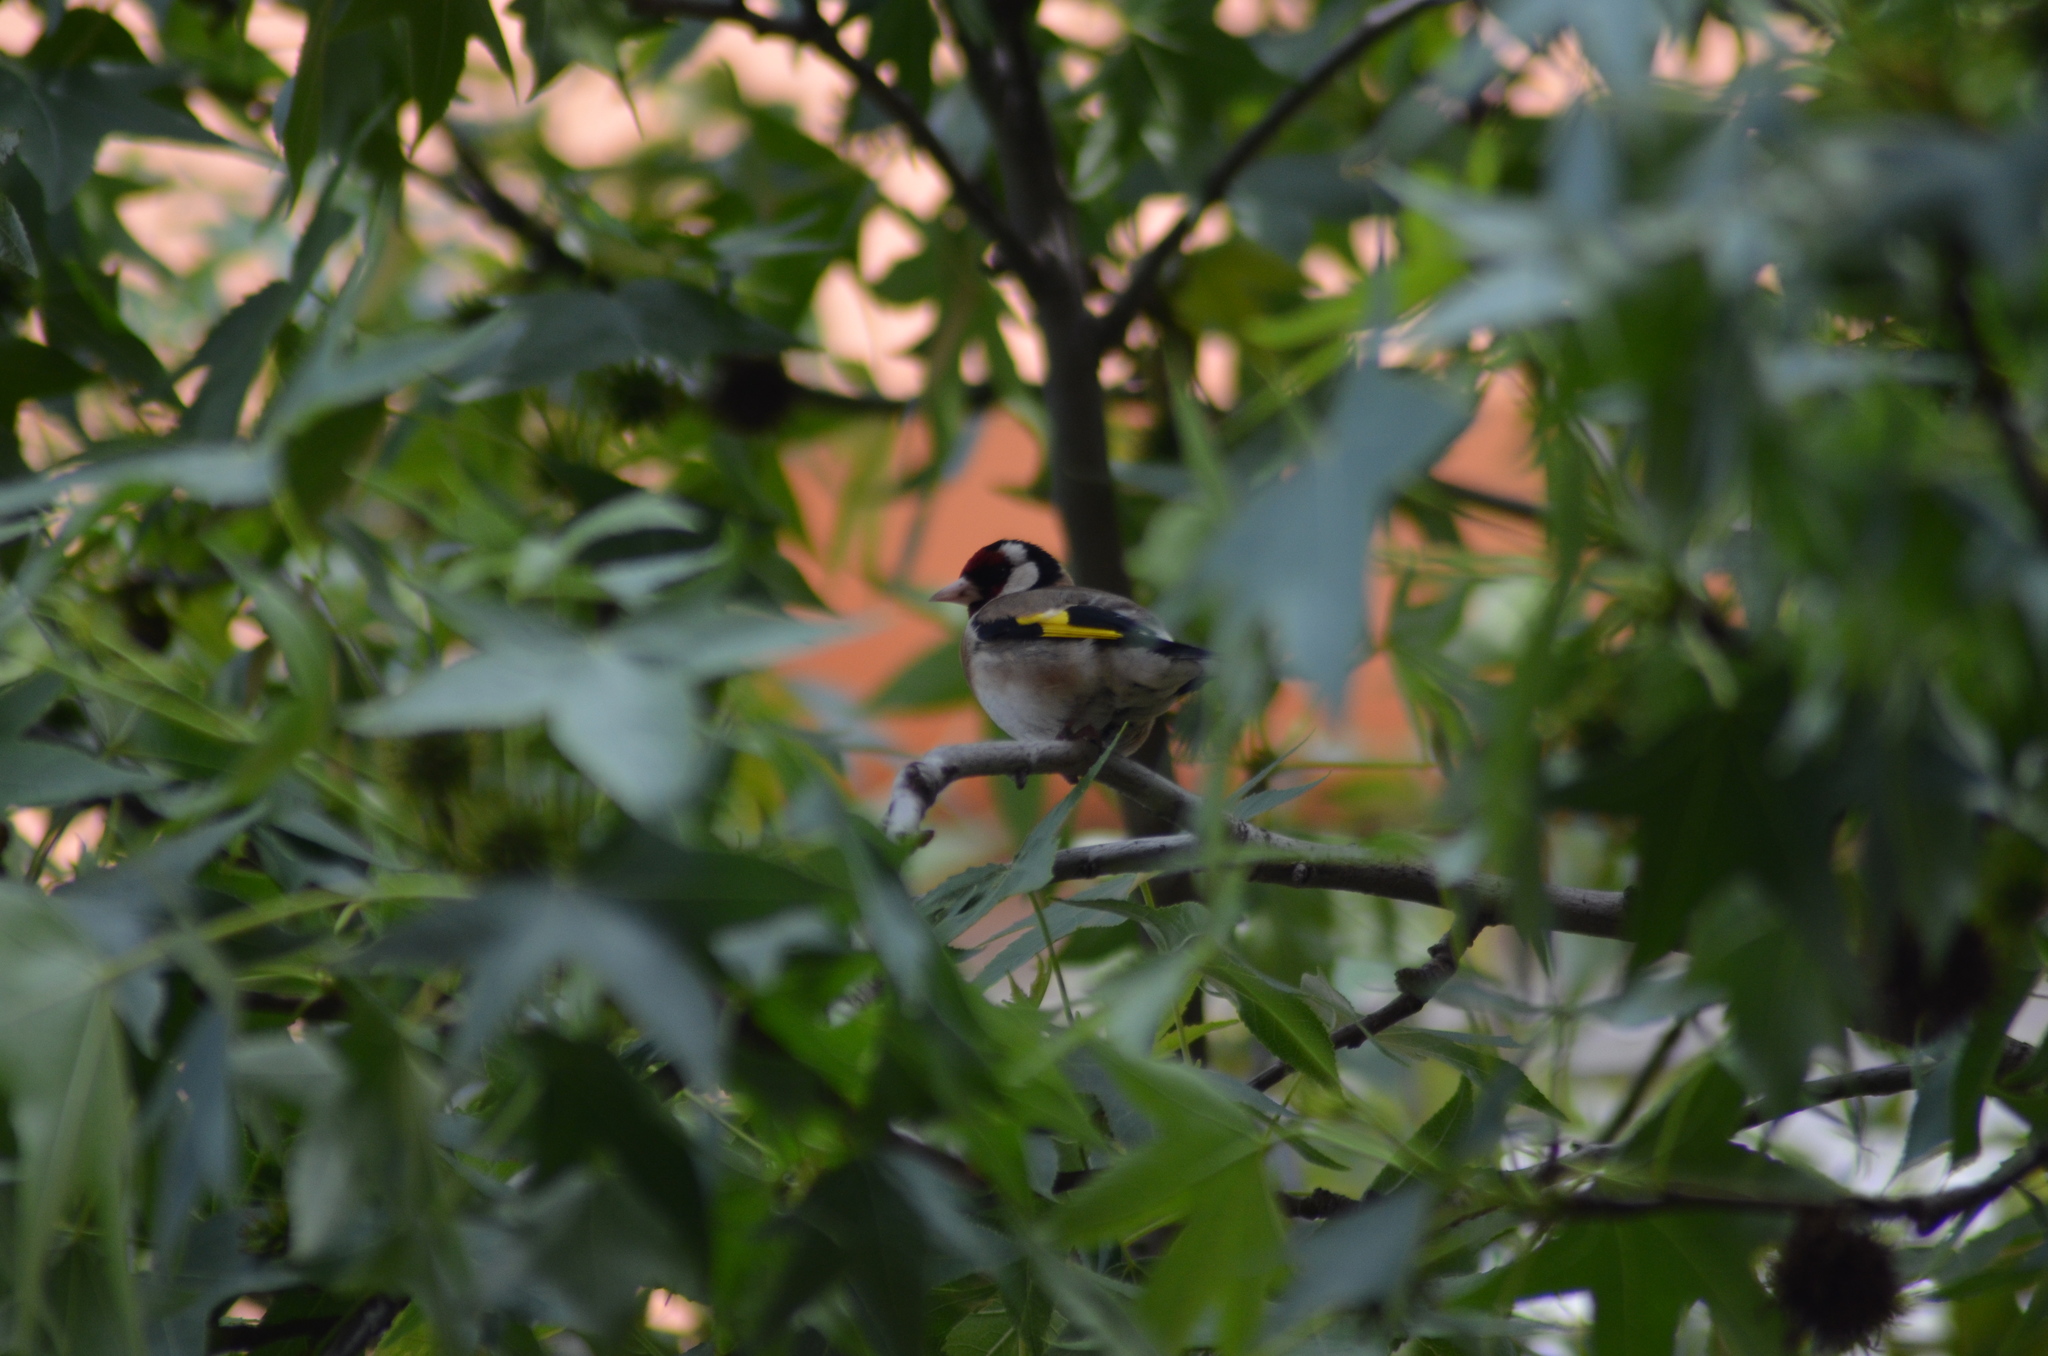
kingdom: Animalia
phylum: Chordata
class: Aves
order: Passeriformes
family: Fringillidae
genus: Carduelis
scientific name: Carduelis carduelis
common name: European goldfinch
